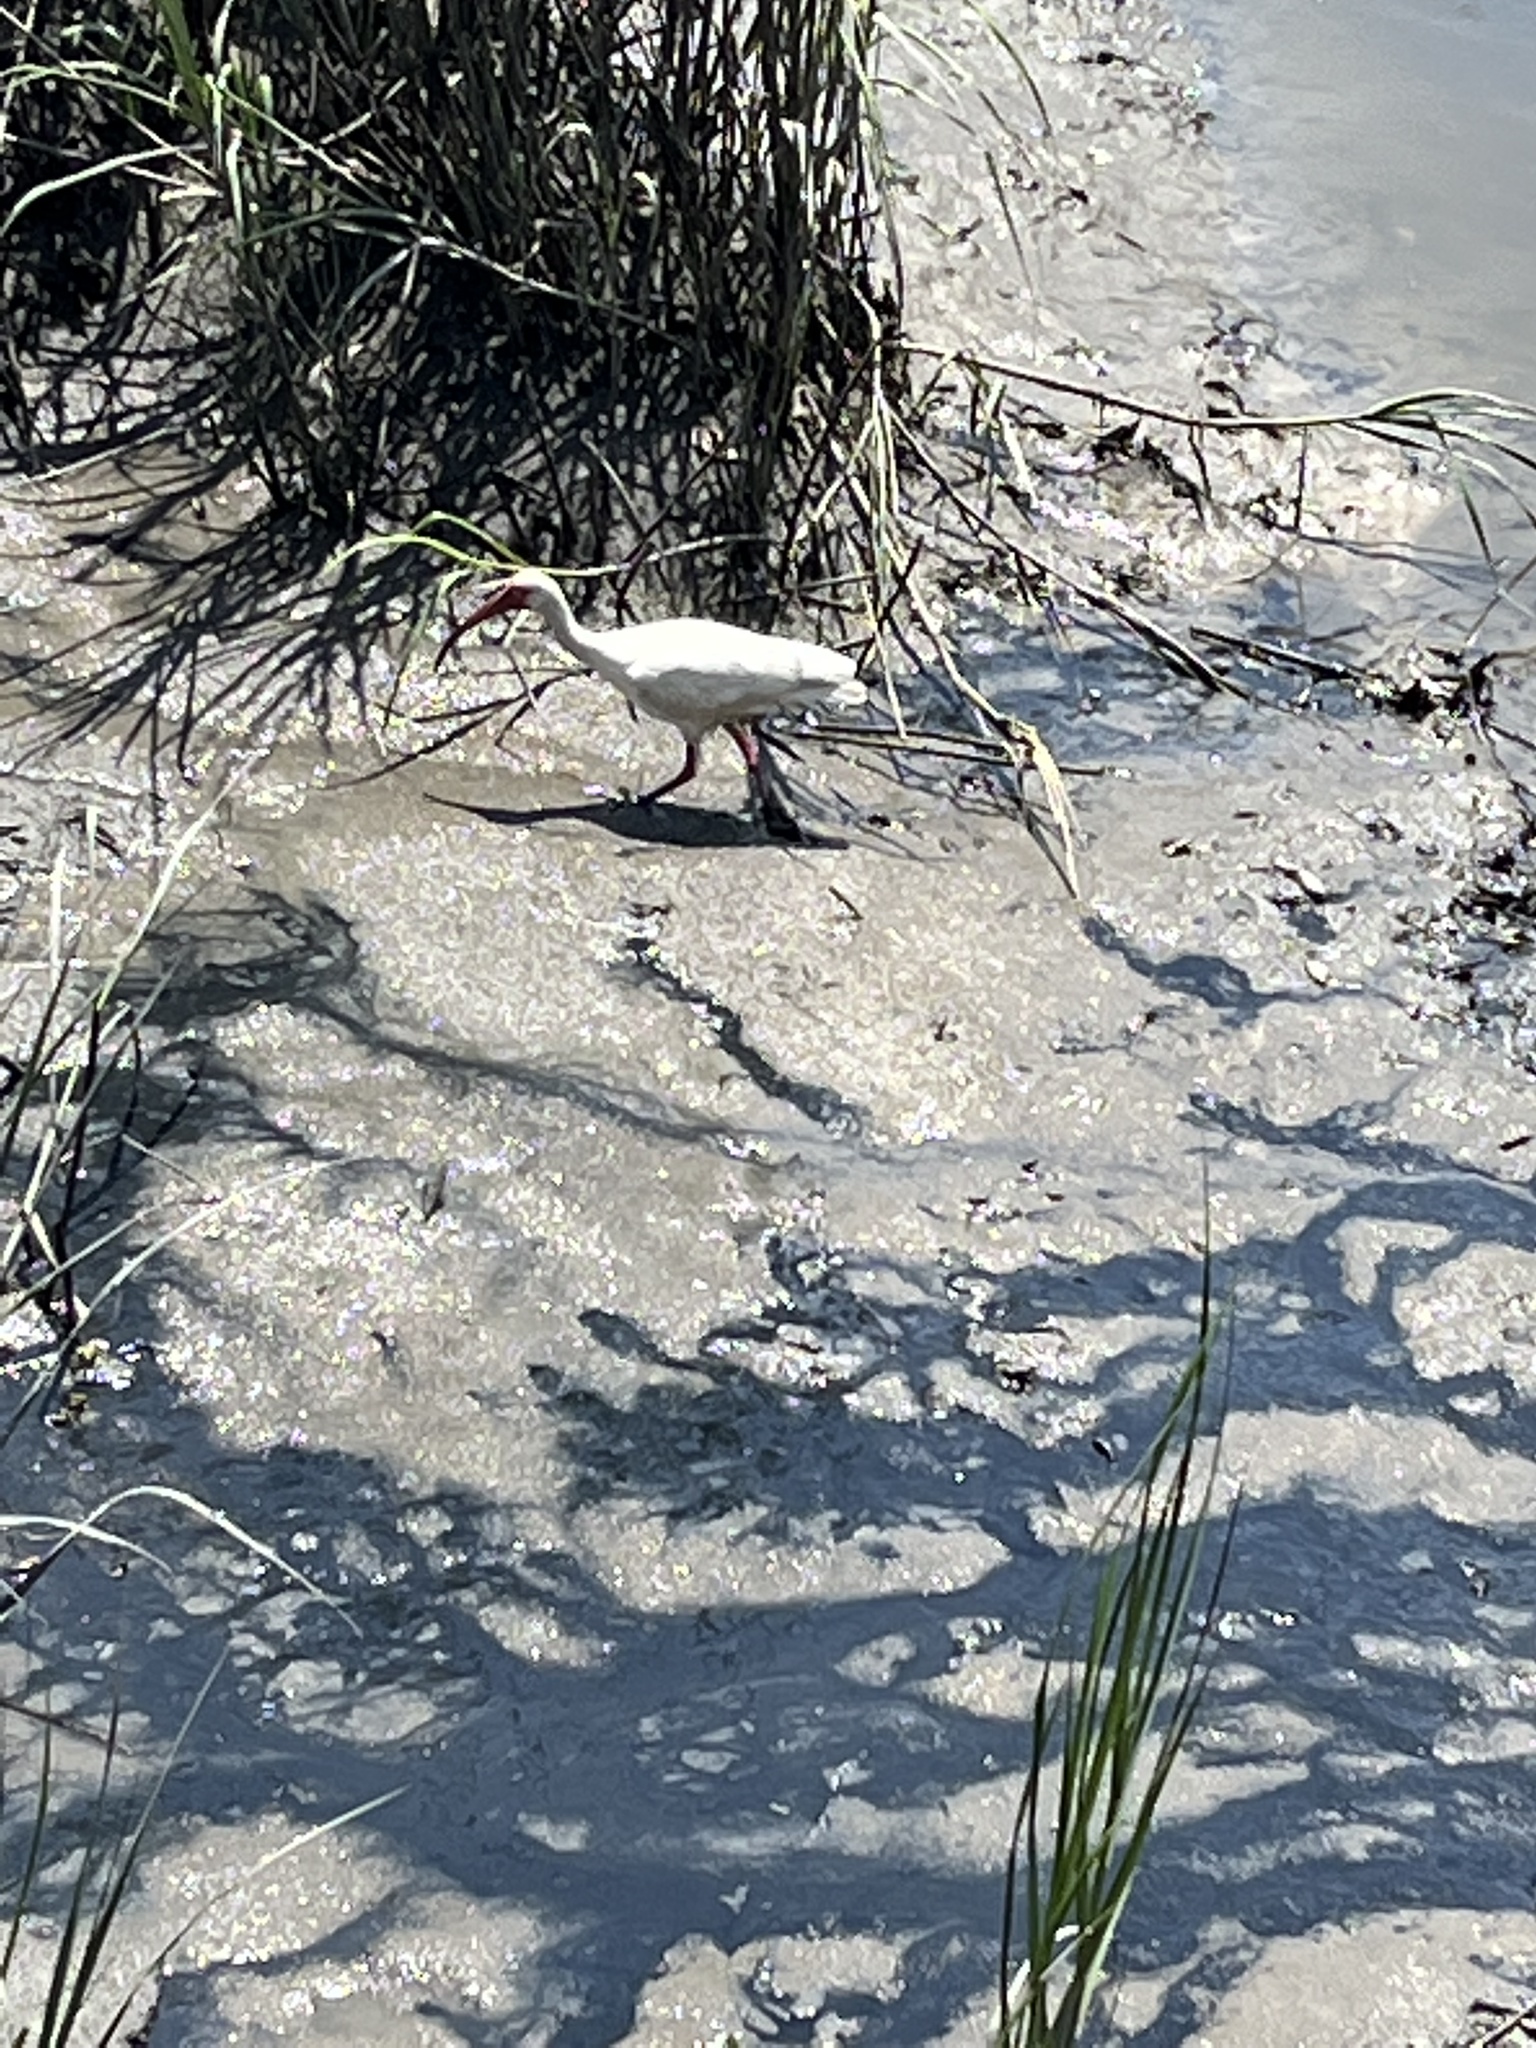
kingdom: Animalia
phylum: Chordata
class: Aves
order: Pelecaniformes
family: Threskiornithidae
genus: Eudocimus
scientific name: Eudocimus albus
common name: White ibis
